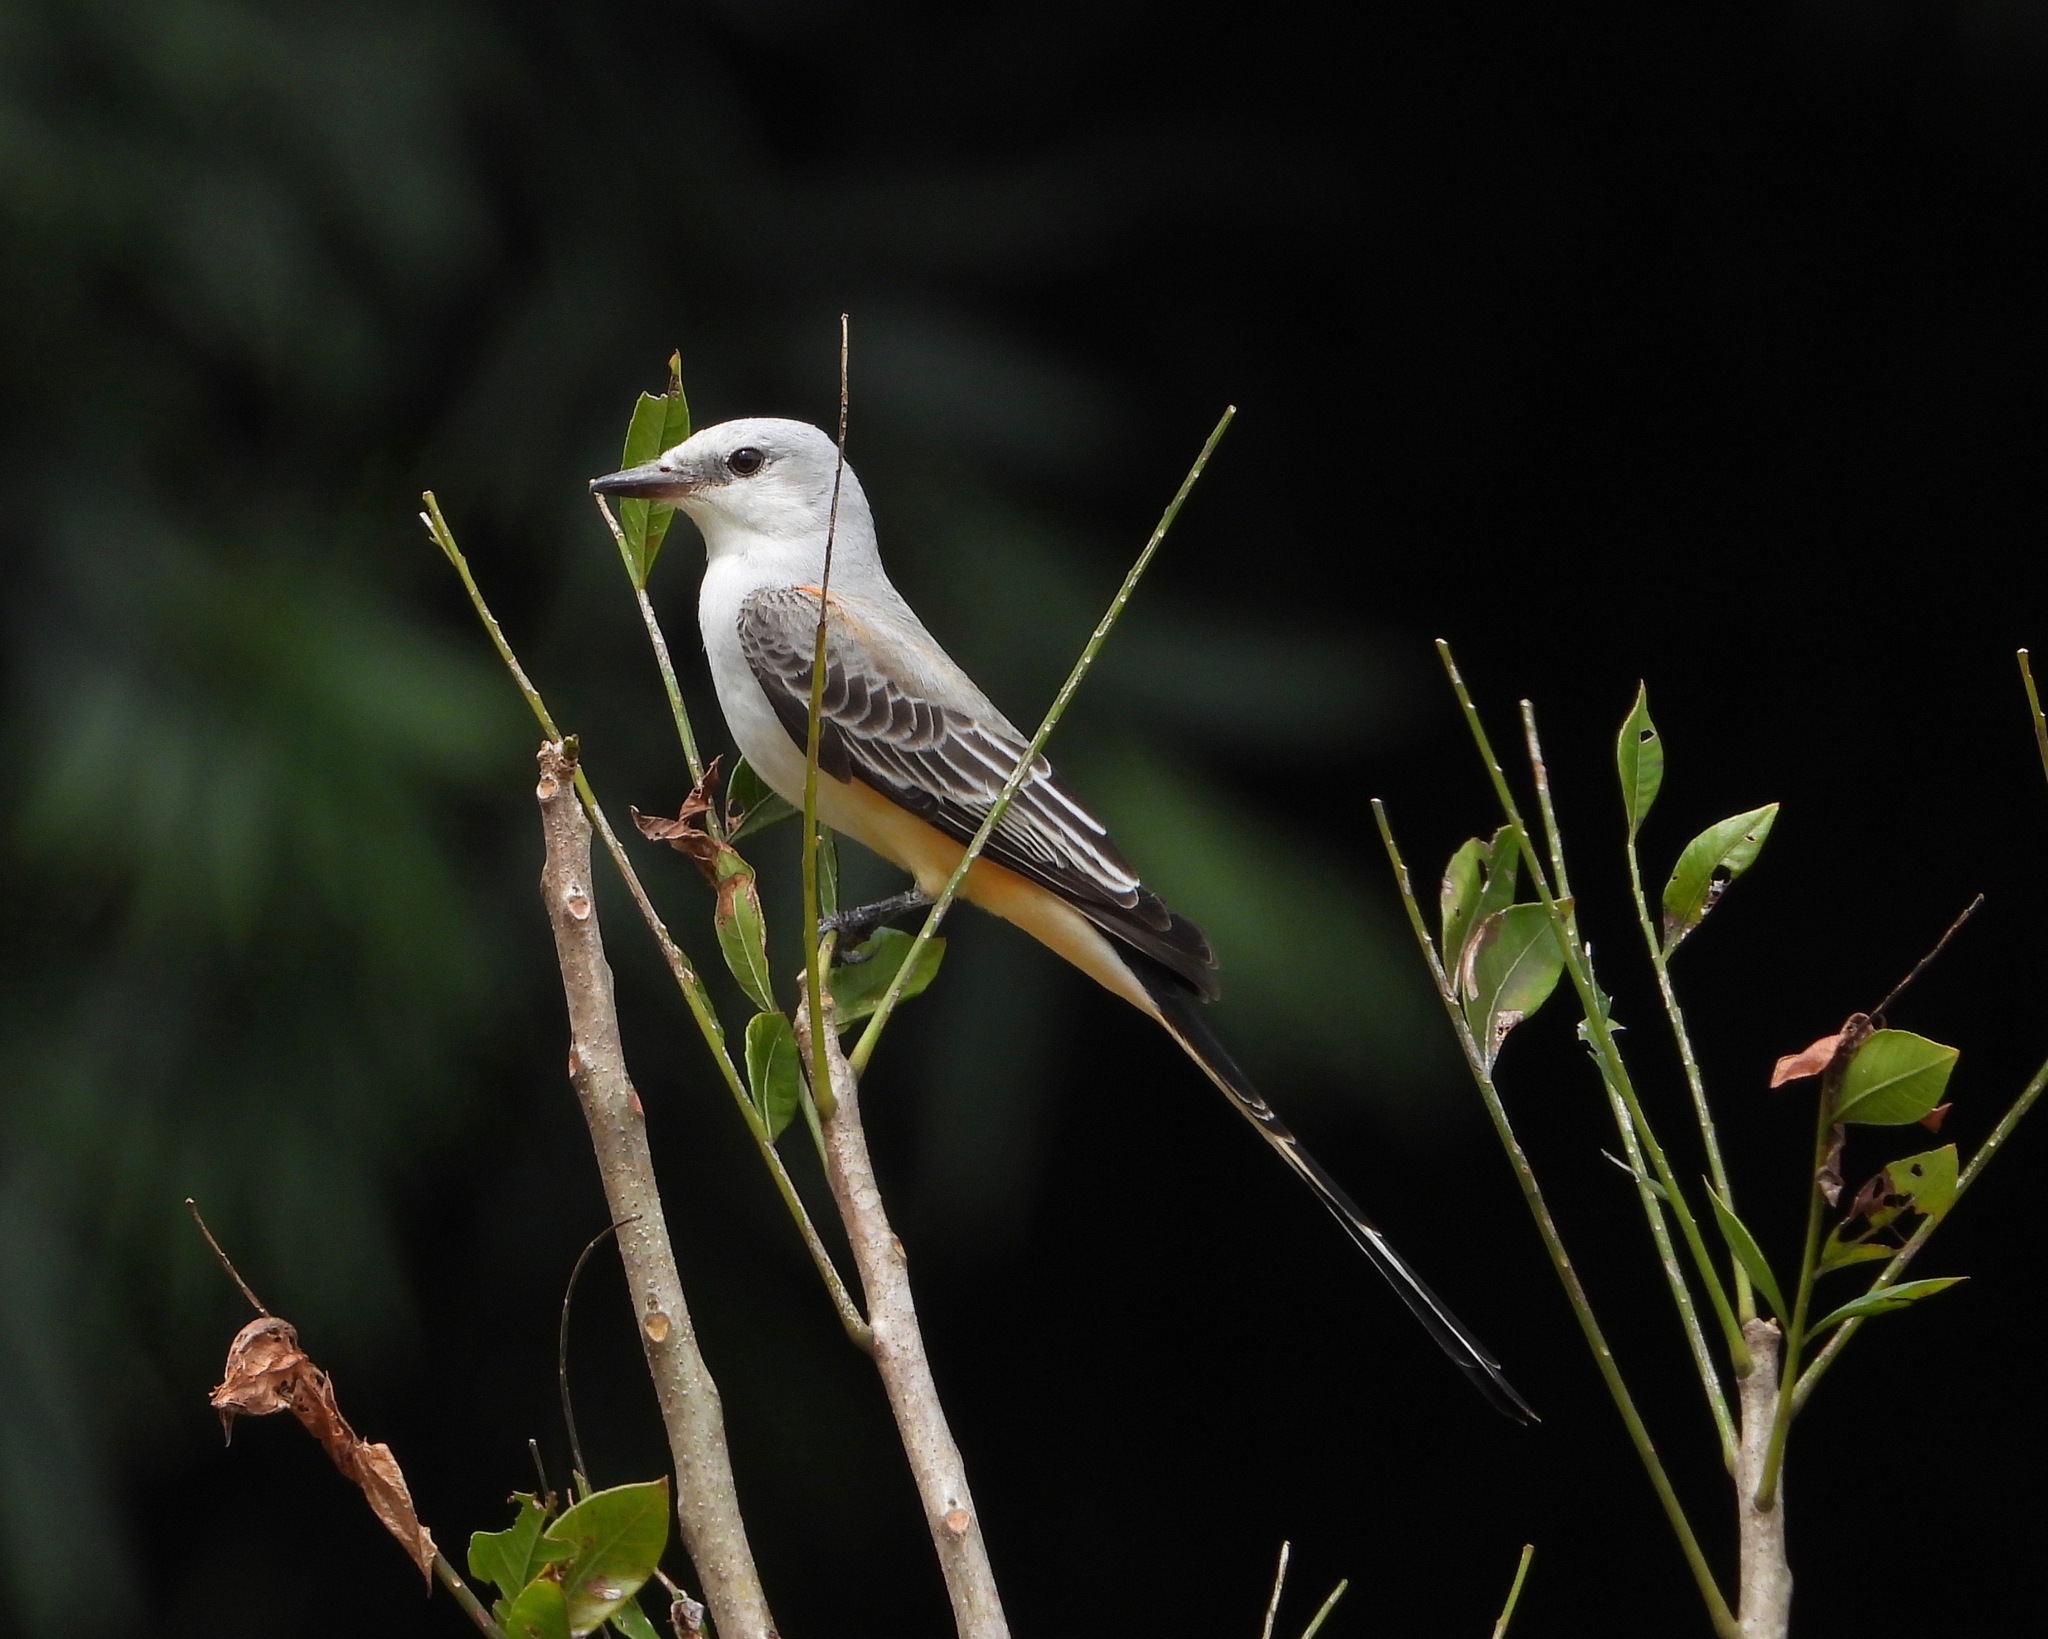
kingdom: Animalia
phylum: Chordata
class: Aves
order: Passeriformes
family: Tyrannidae
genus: Tyrannus
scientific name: Tyrannus forficatus
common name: Scissor-tailed flycatcher
